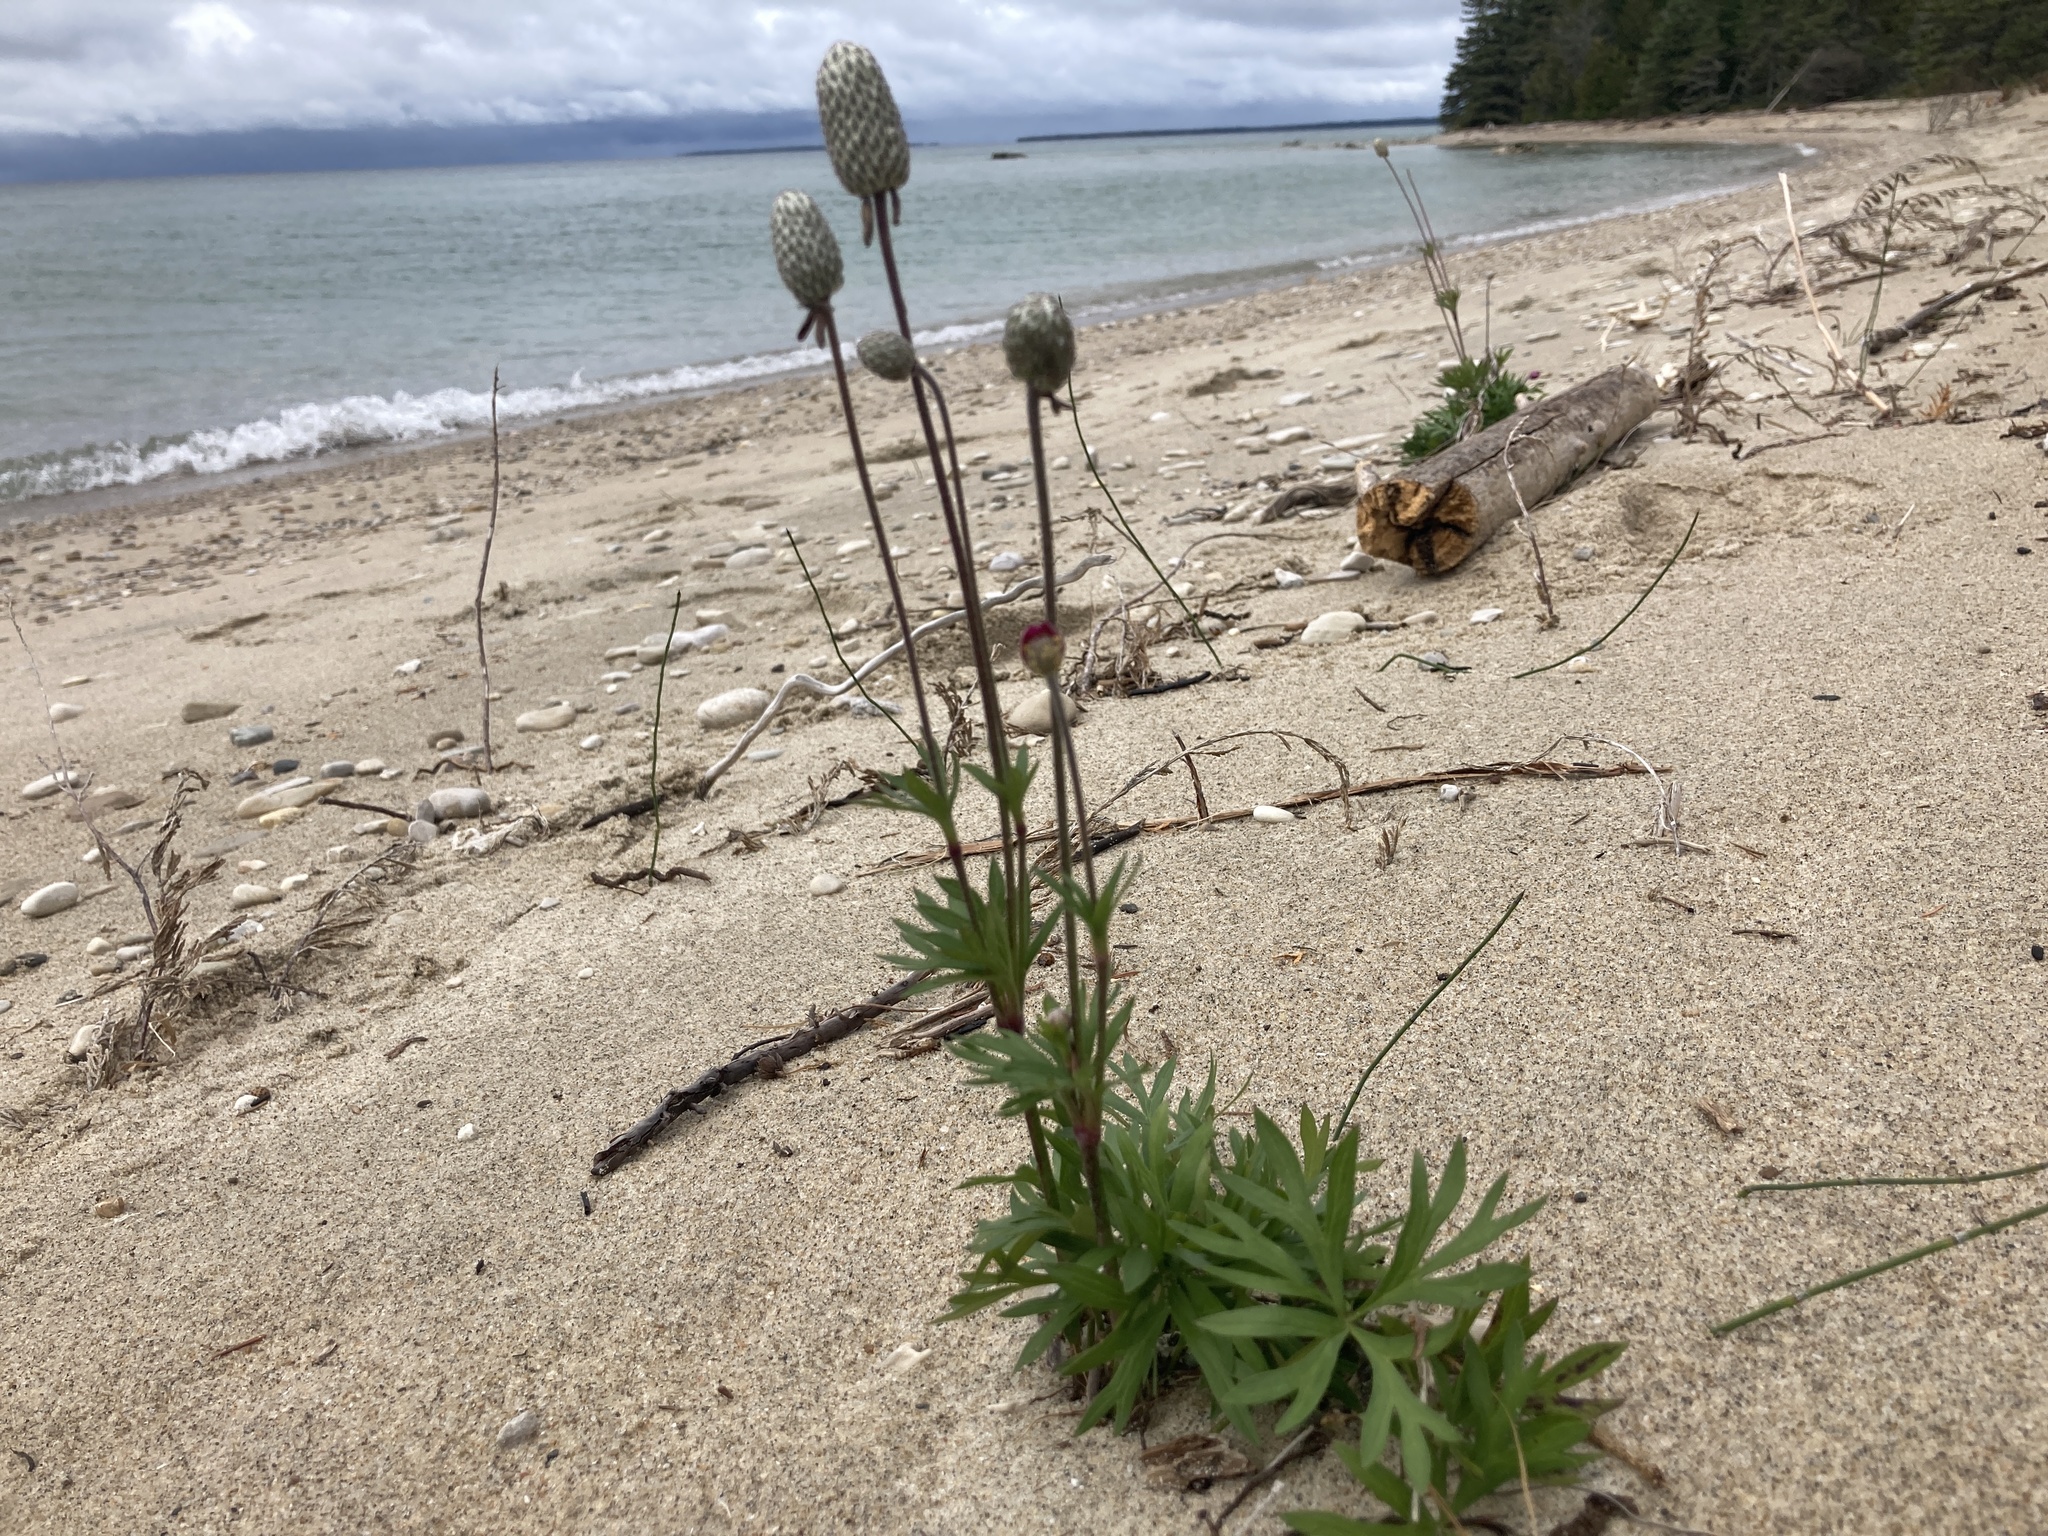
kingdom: Plantae
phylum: Tracheophyta
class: Magnoliopsida
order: Ranunculales
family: Ranunculaceae
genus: Anemone
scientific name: Anemone multifida
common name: Bird's-foot anemone
